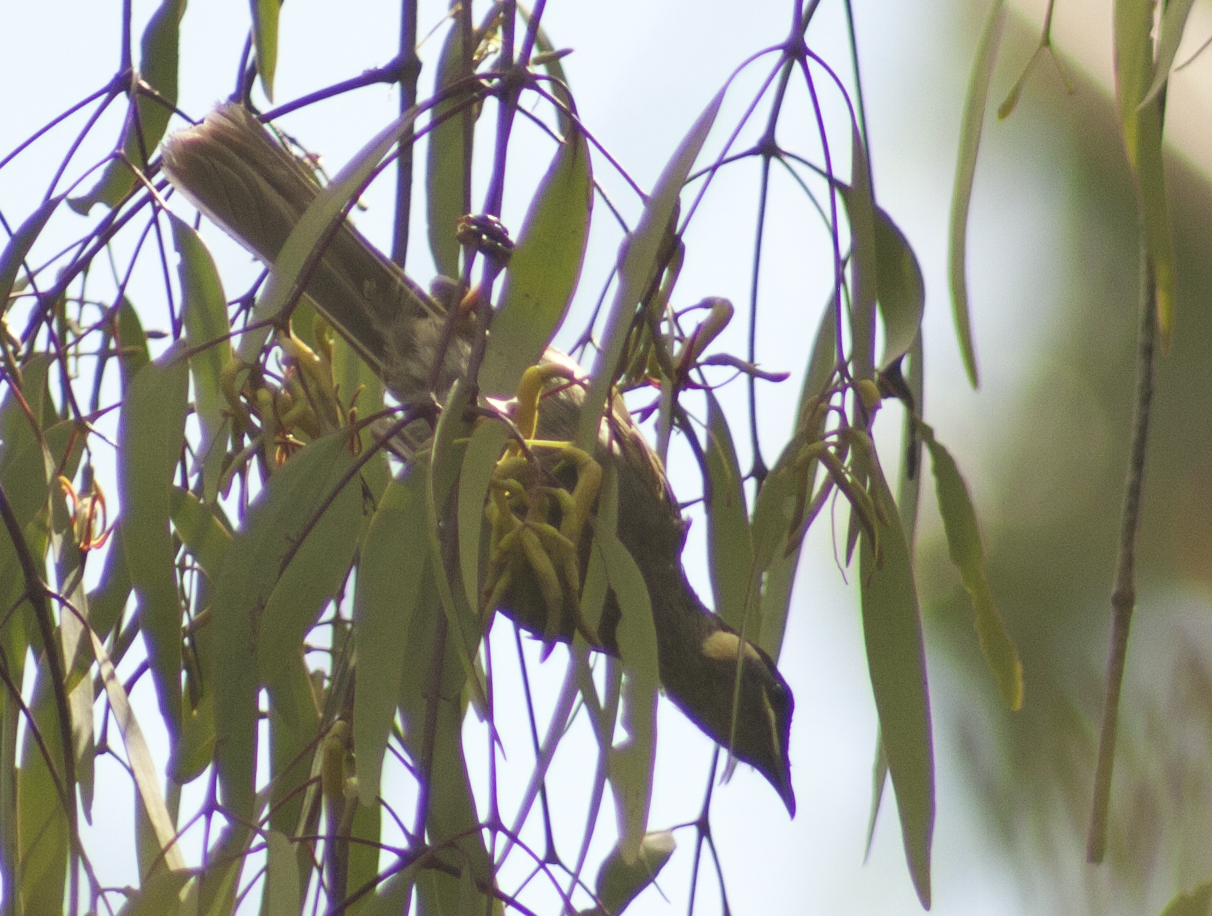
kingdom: Animalia
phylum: Chordata
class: Aves
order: Passeriformes
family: Meliphagidae
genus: Meliphaga
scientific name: Meliphaga lewinii
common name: Lewin's honeyeater
